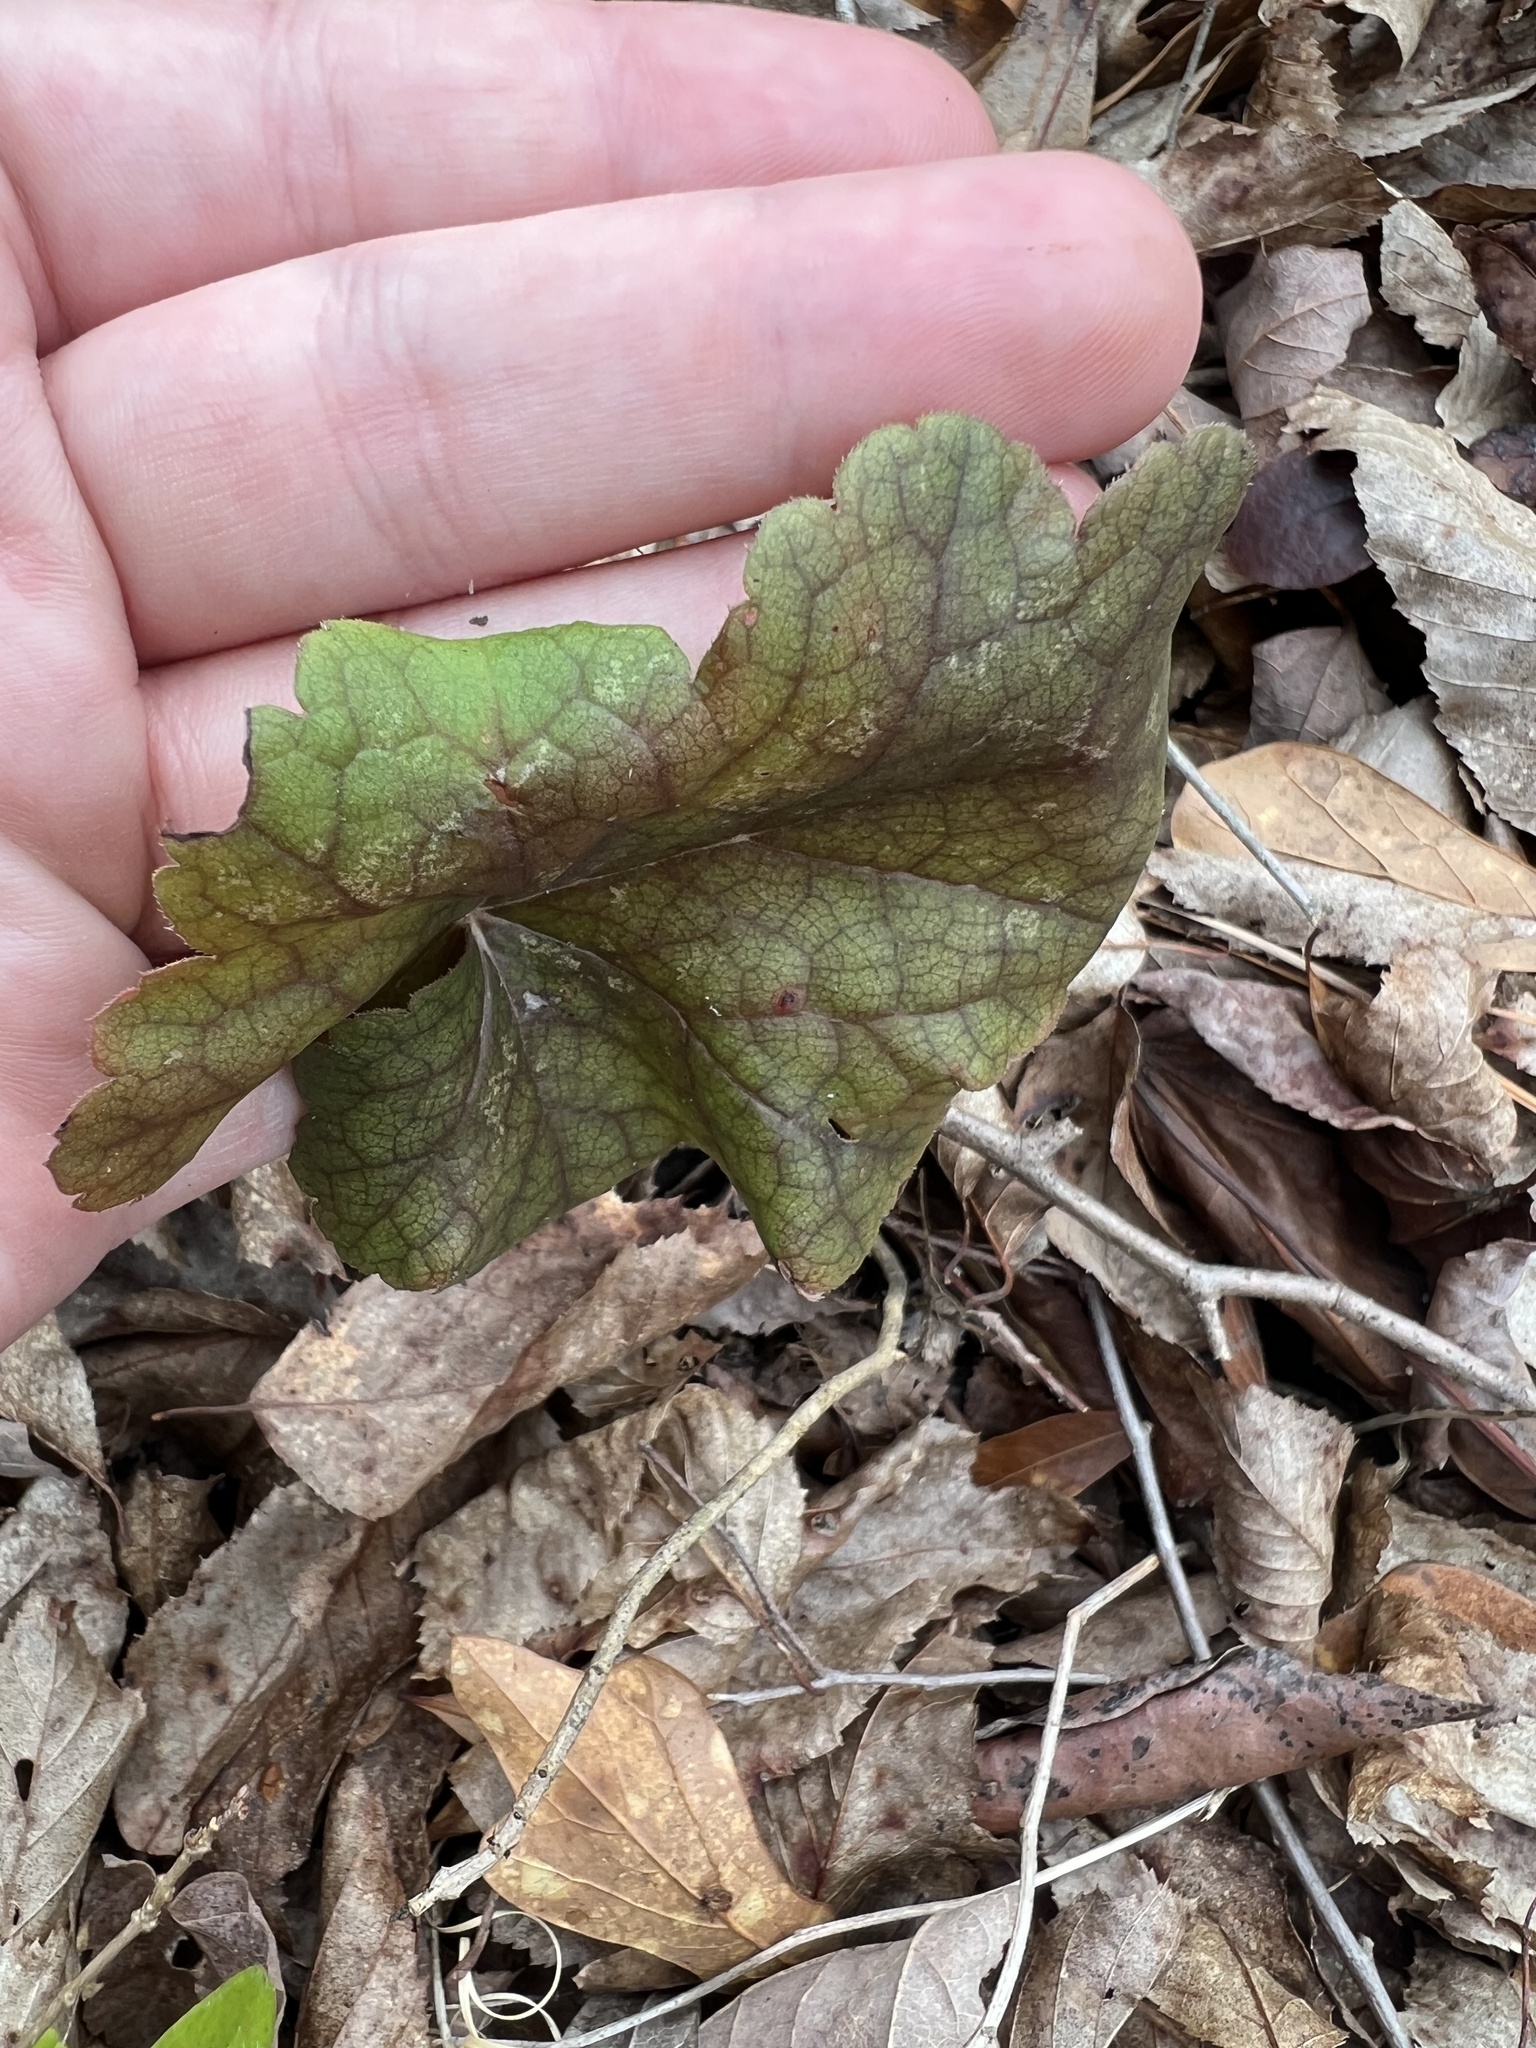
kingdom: Plantae
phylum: Tracheophyta
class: Magnoliopsida
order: Saxifragales
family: Saxifragaceae
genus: Heuchera
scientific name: Heuchera americana
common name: Alumroot
